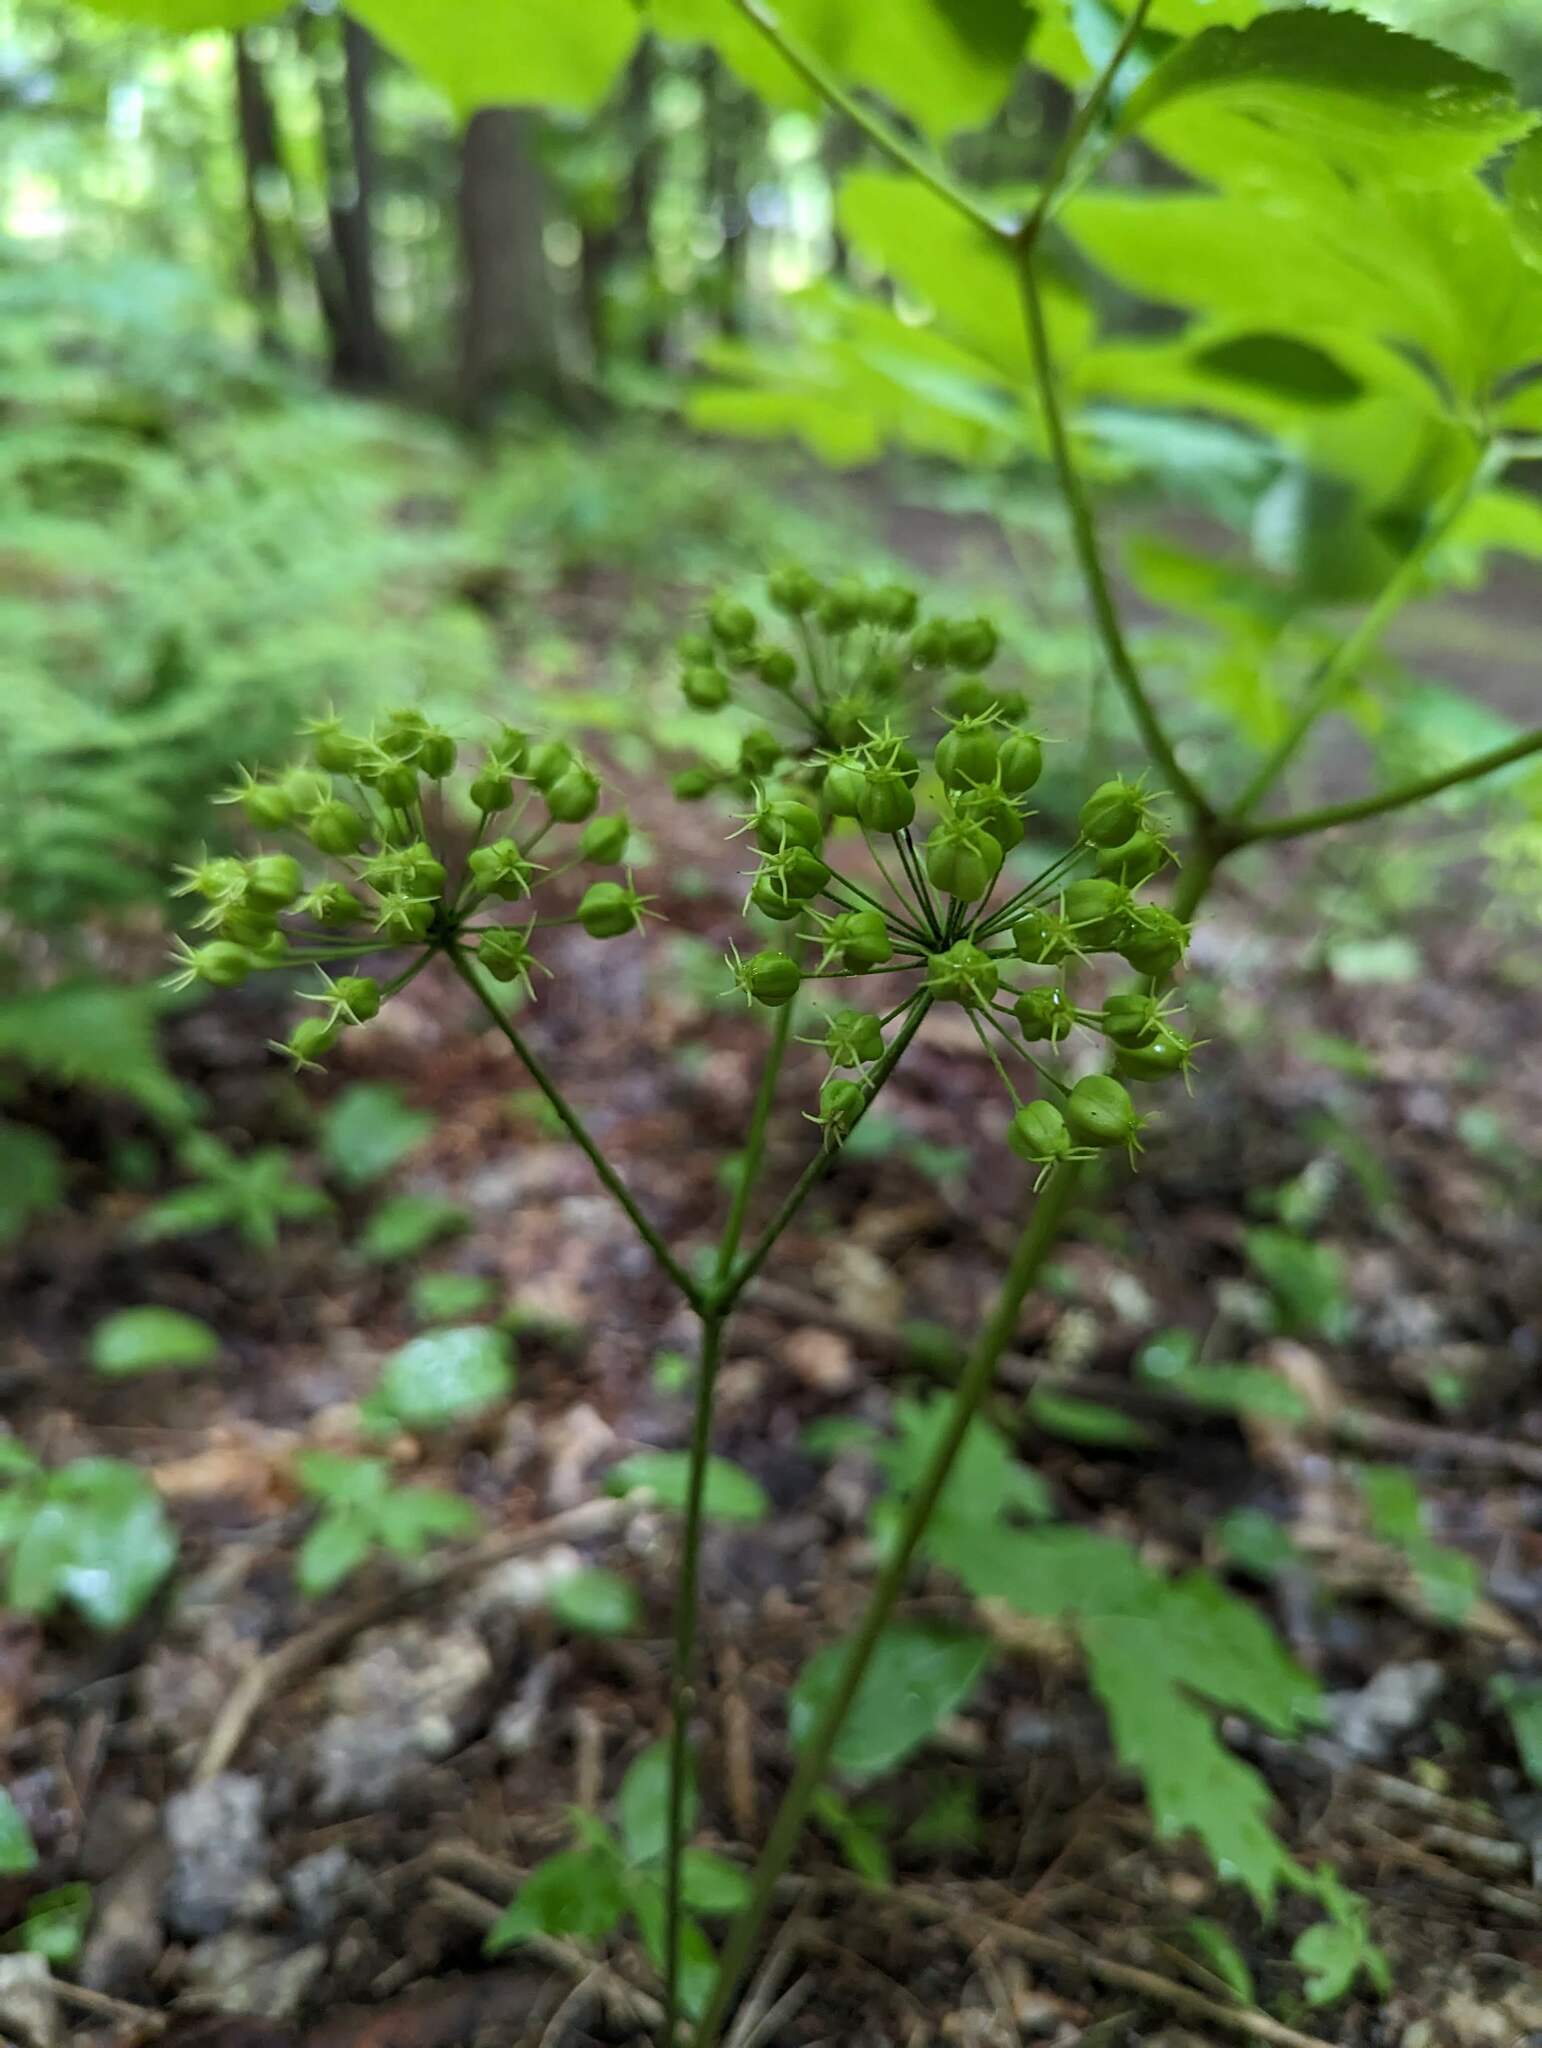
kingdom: Plantae
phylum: Tracheophyta
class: Magnoliopsida
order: Apiales
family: Araliaceae
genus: Aralia
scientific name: Aralia nudicaulis
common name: Wild sarsaparilla
